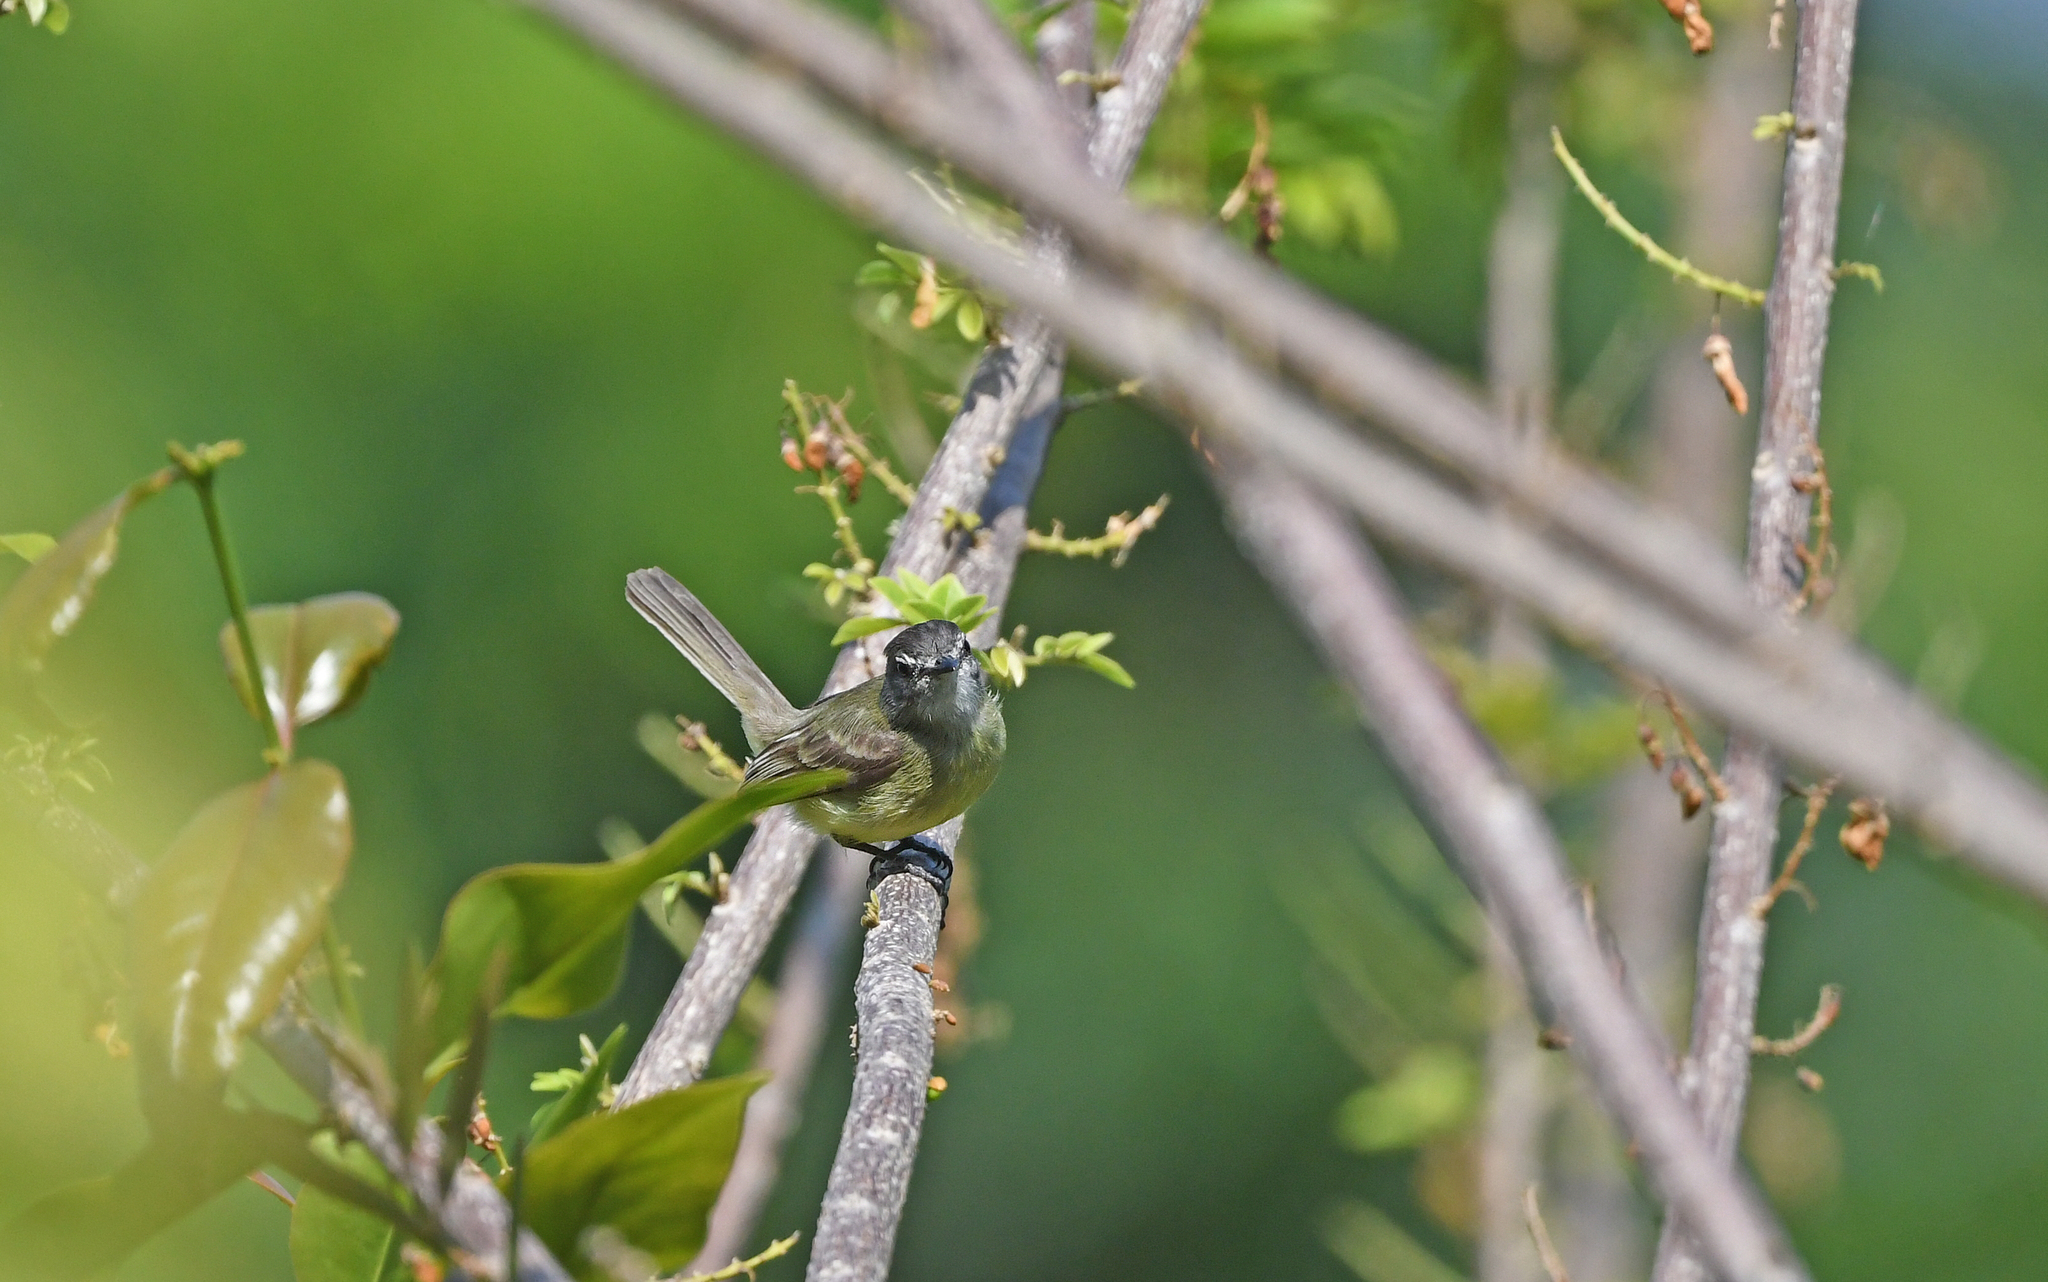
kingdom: Animalia
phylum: Chordata
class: Aves
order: Passeriformes
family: Tyrannidae
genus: Phyllomyias
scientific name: Phyllomyias griseiceps
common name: Sooty-headed tyrannulet
